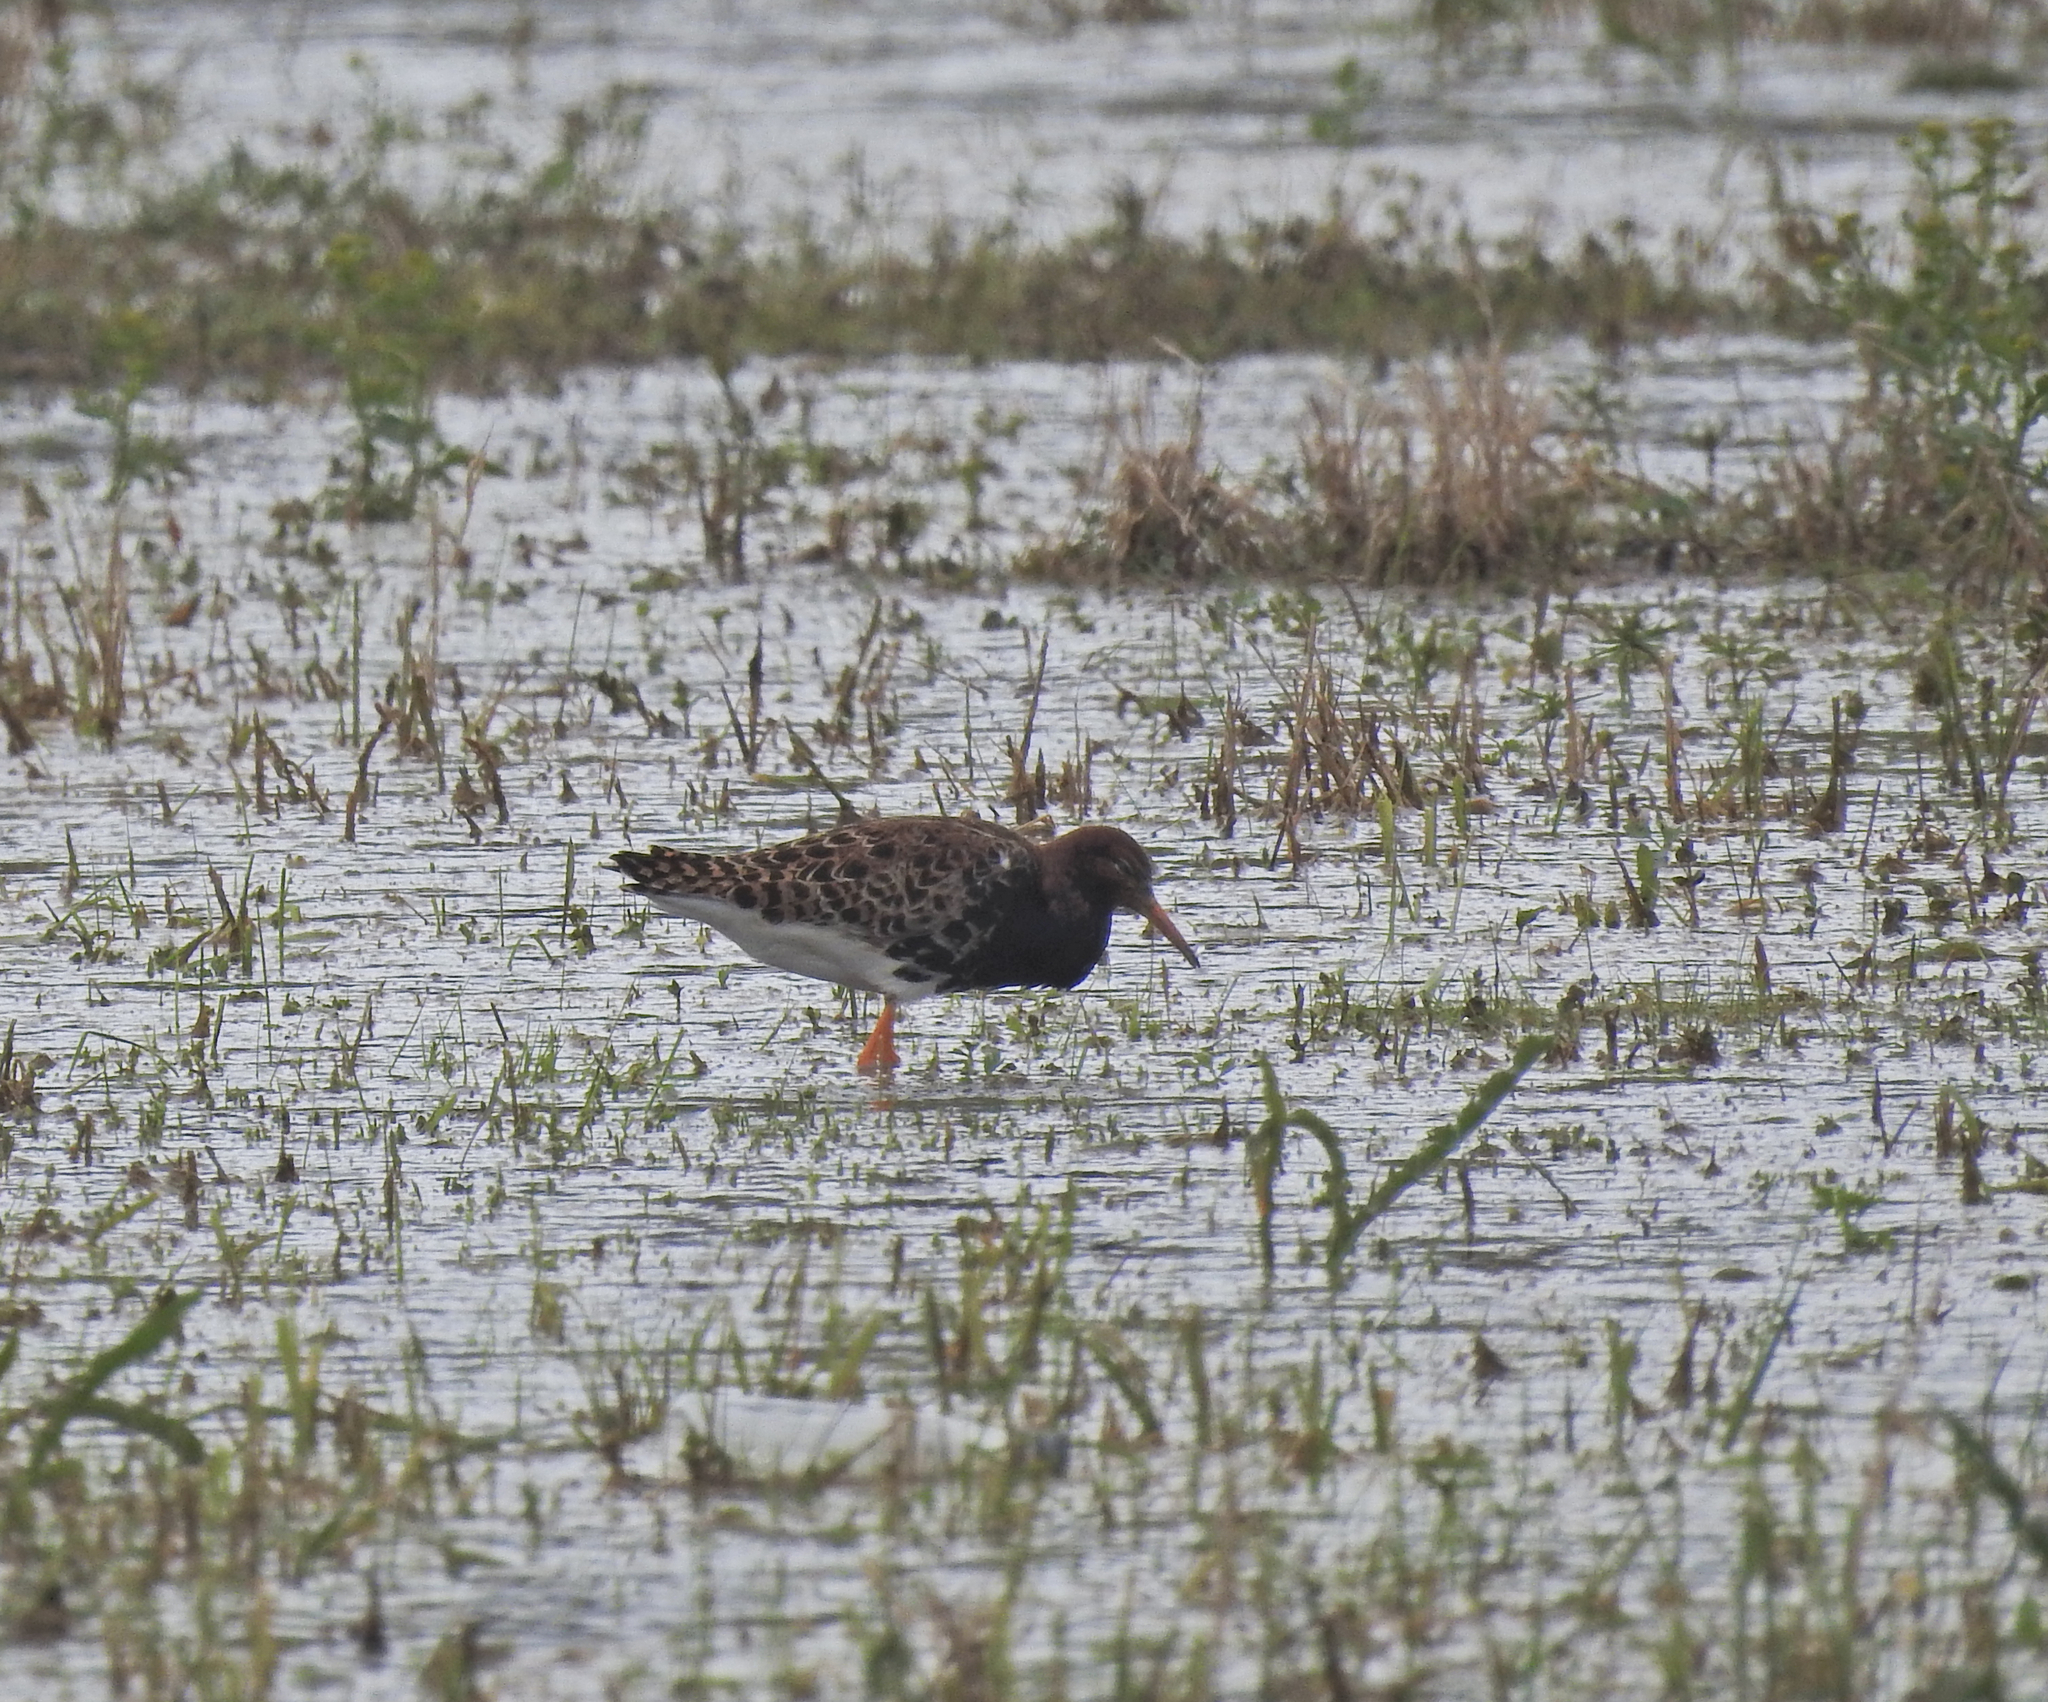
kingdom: Animalia
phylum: Chordata
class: Aves
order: Charadriiformes
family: Scolopacidae
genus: Calidris
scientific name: Calidris pugnax
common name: Ruff
